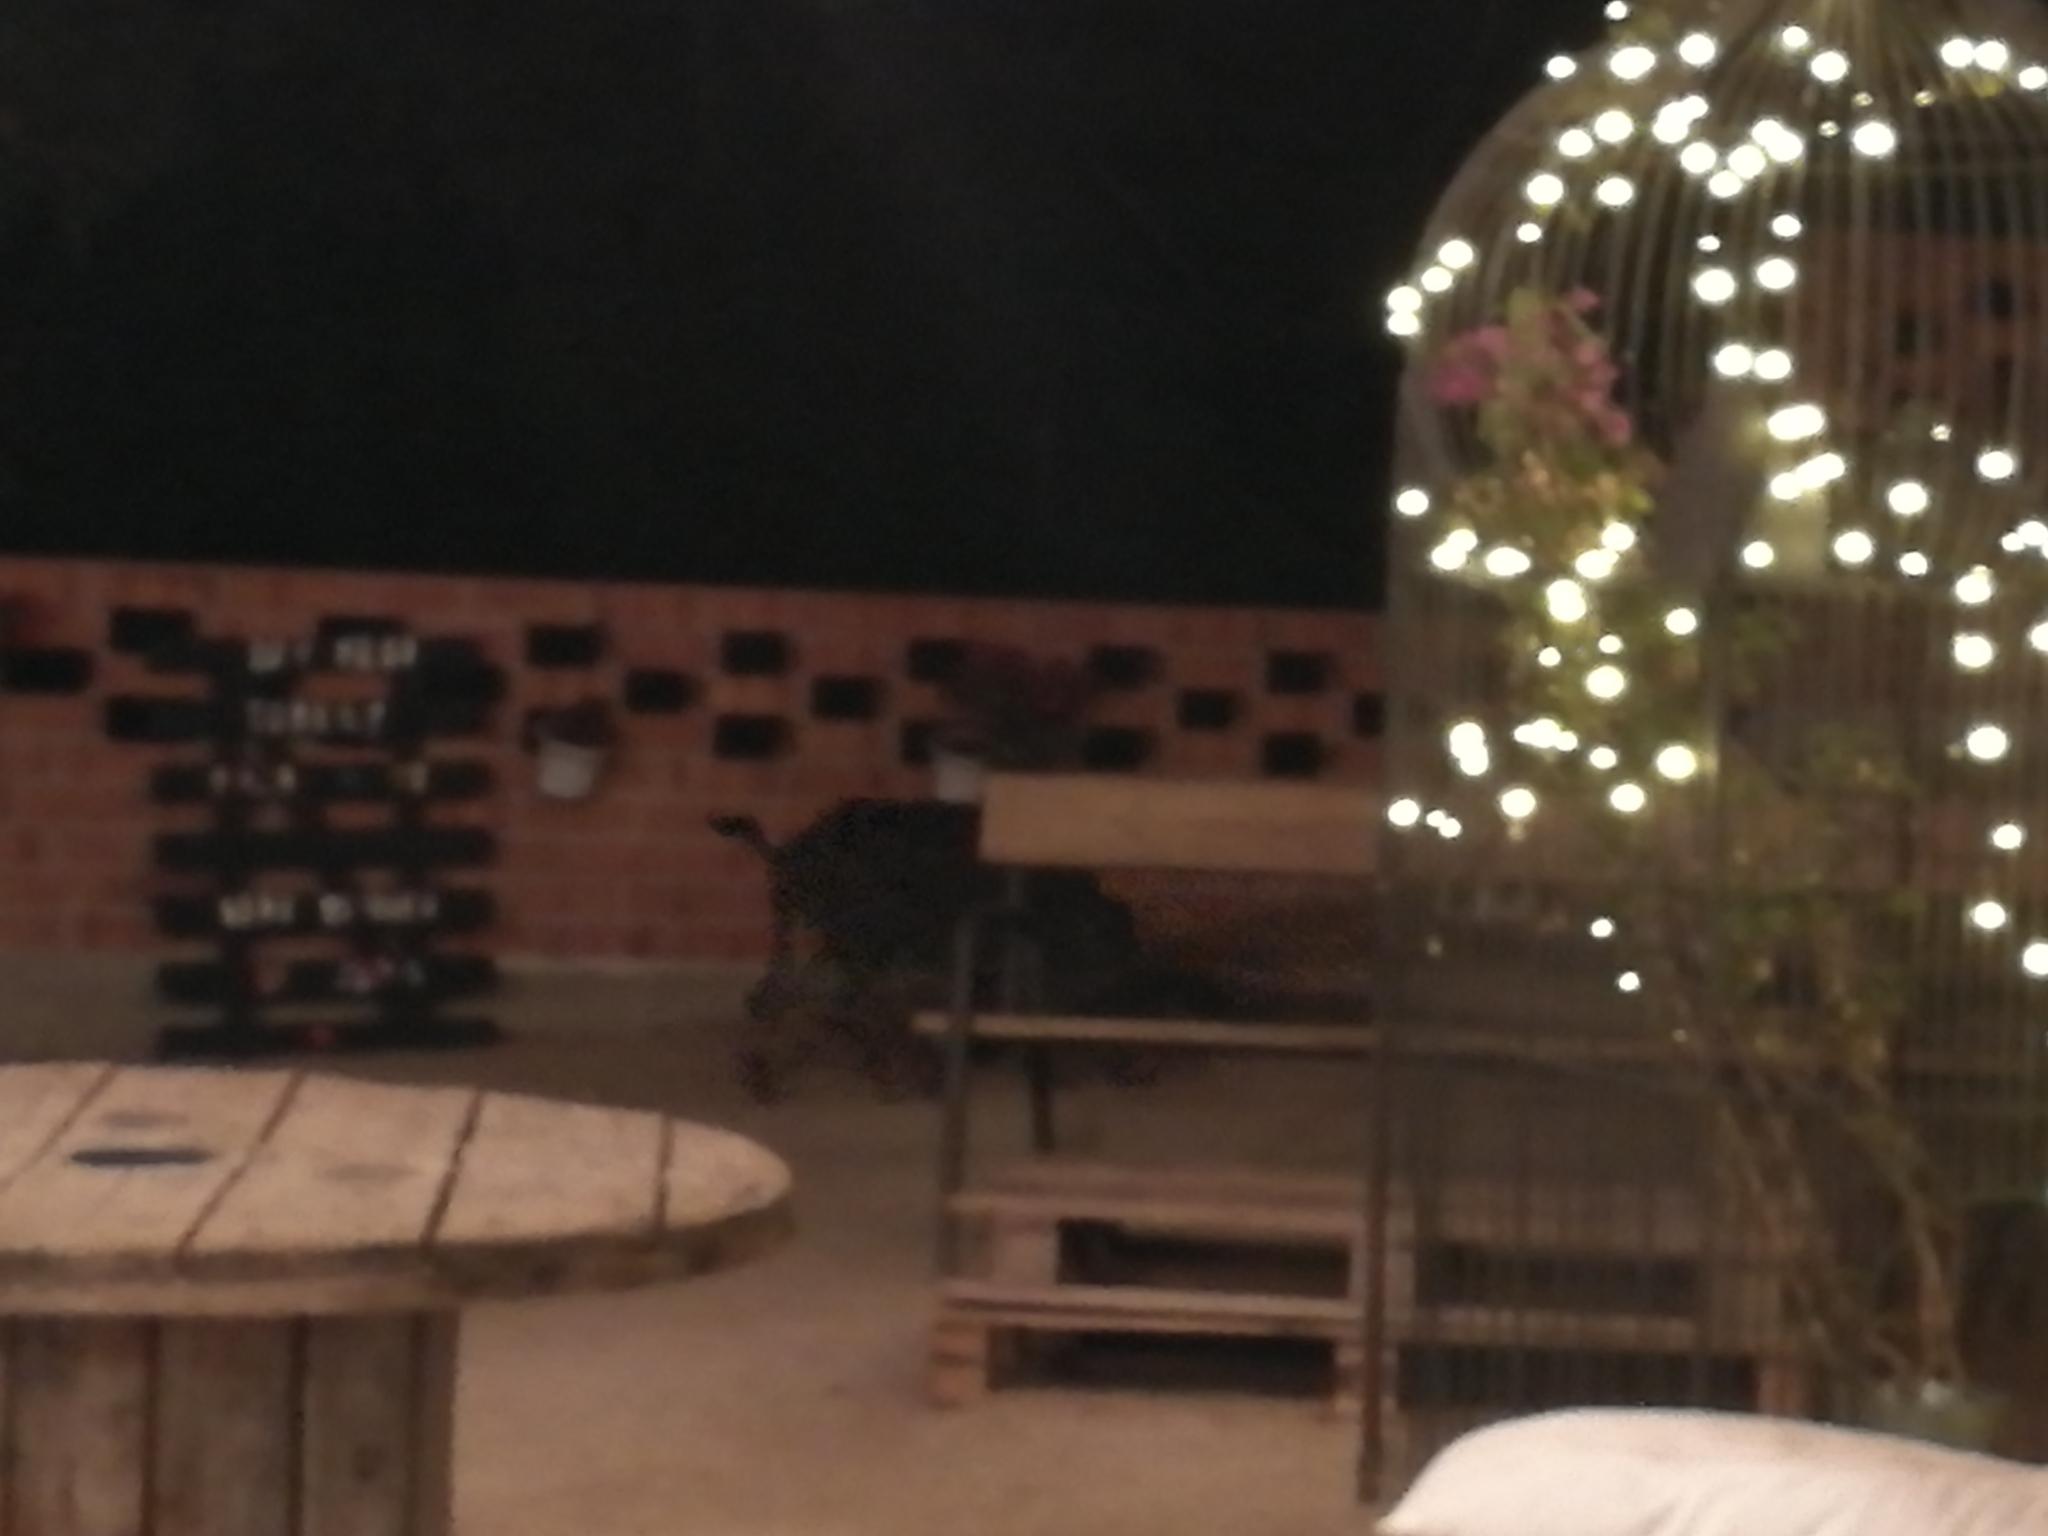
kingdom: Animalia
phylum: Chordata
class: Mammalia
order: Artiodactyla
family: Suidae
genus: Sus
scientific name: Sus scrofa
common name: Wild boar
